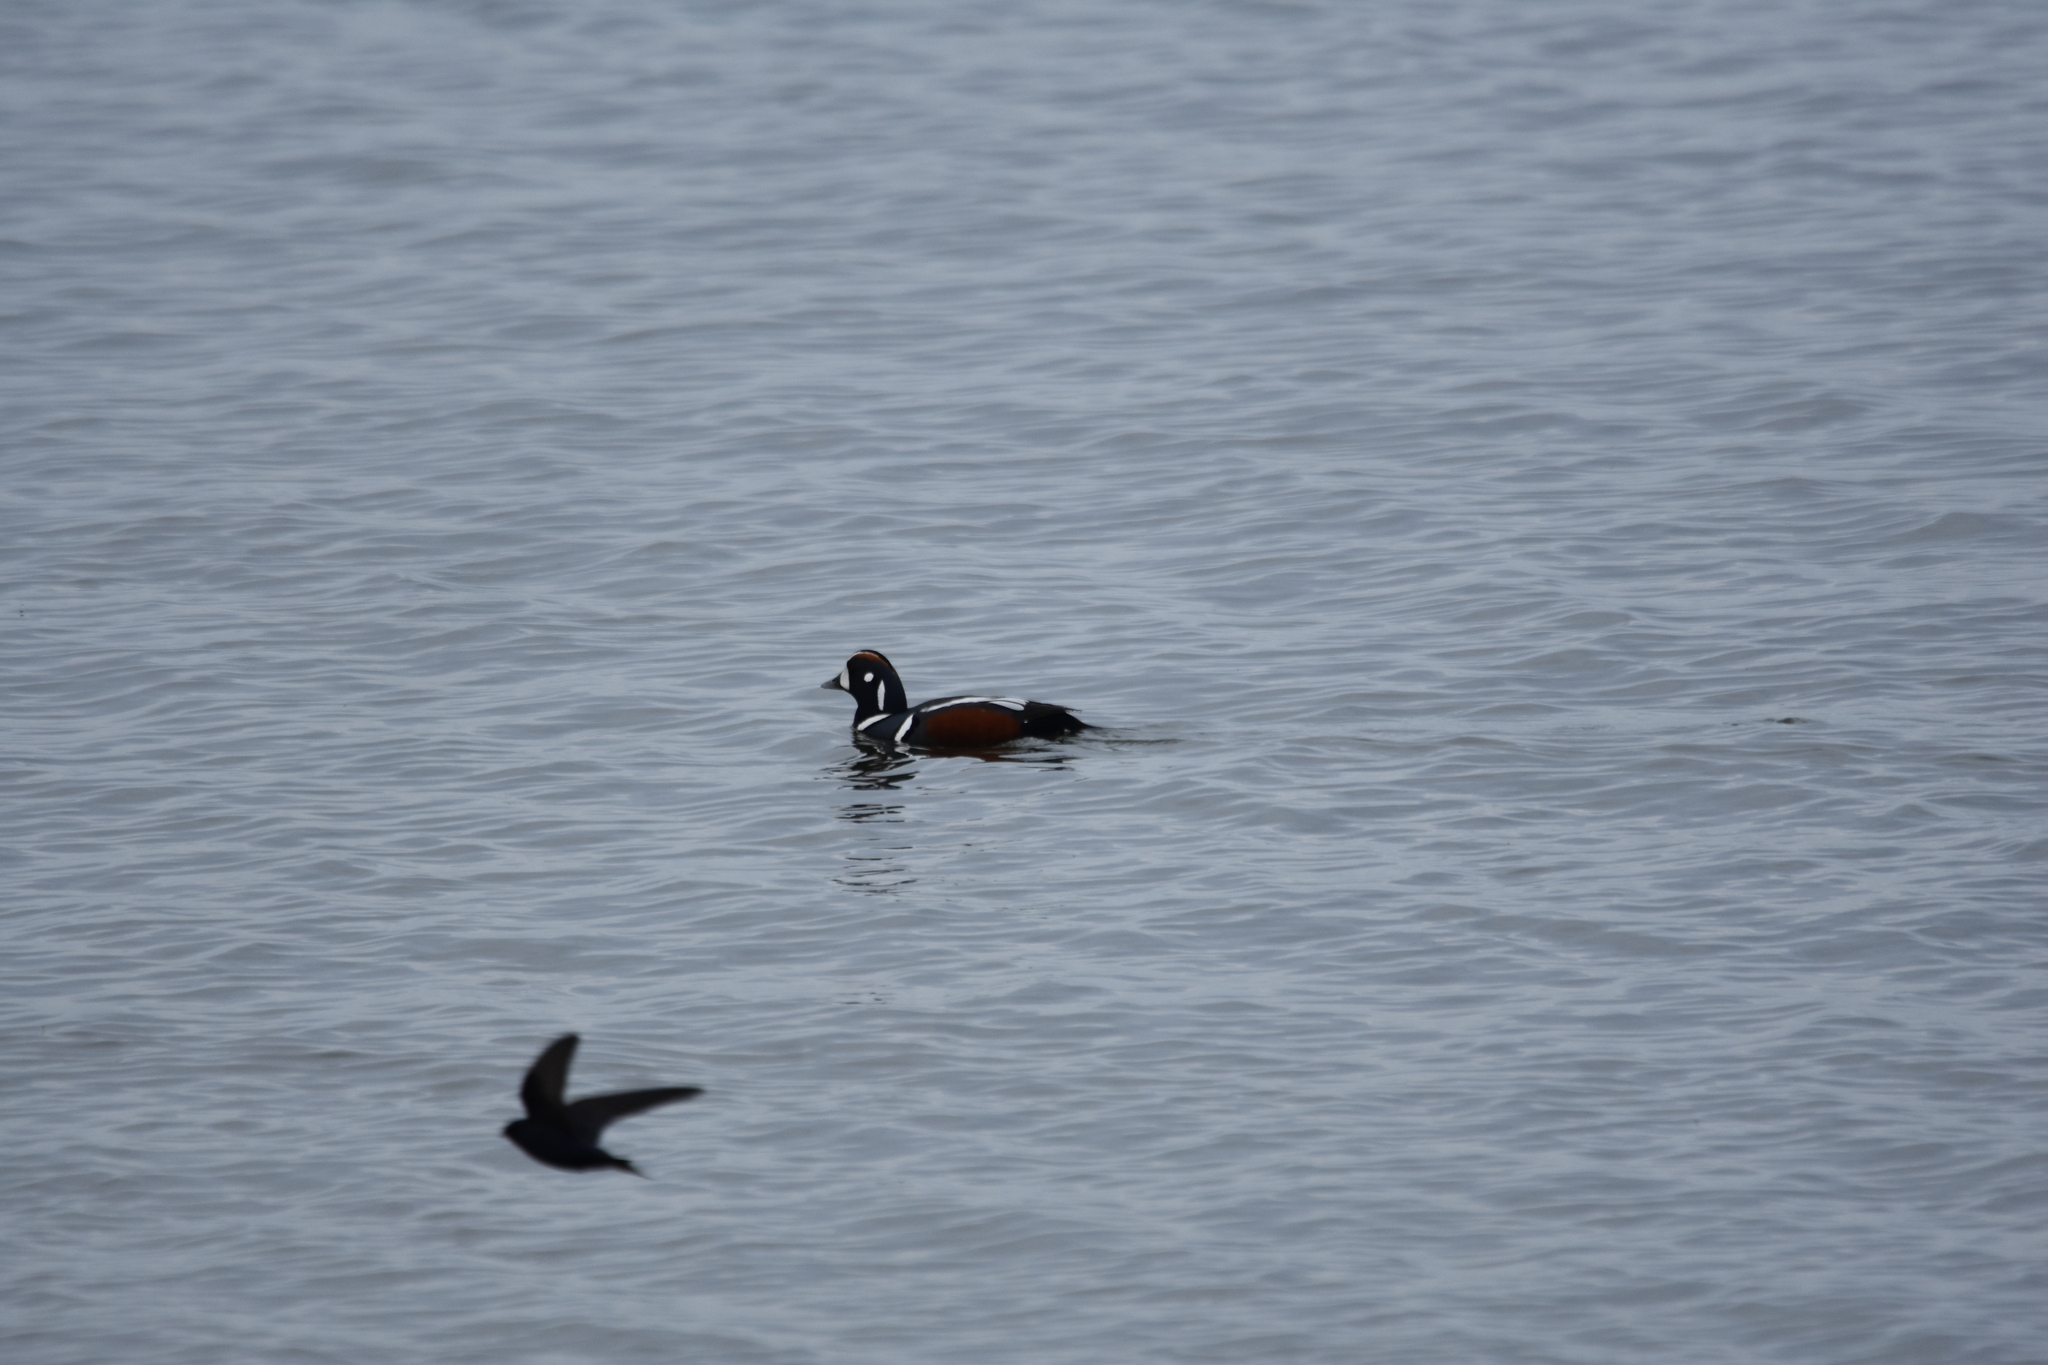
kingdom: Animalia
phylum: Chordata
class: Aves
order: Anseriformes
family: Anatidae
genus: Histrionicus
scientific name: Histrionicus histrionicus
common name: Harlequin duck
